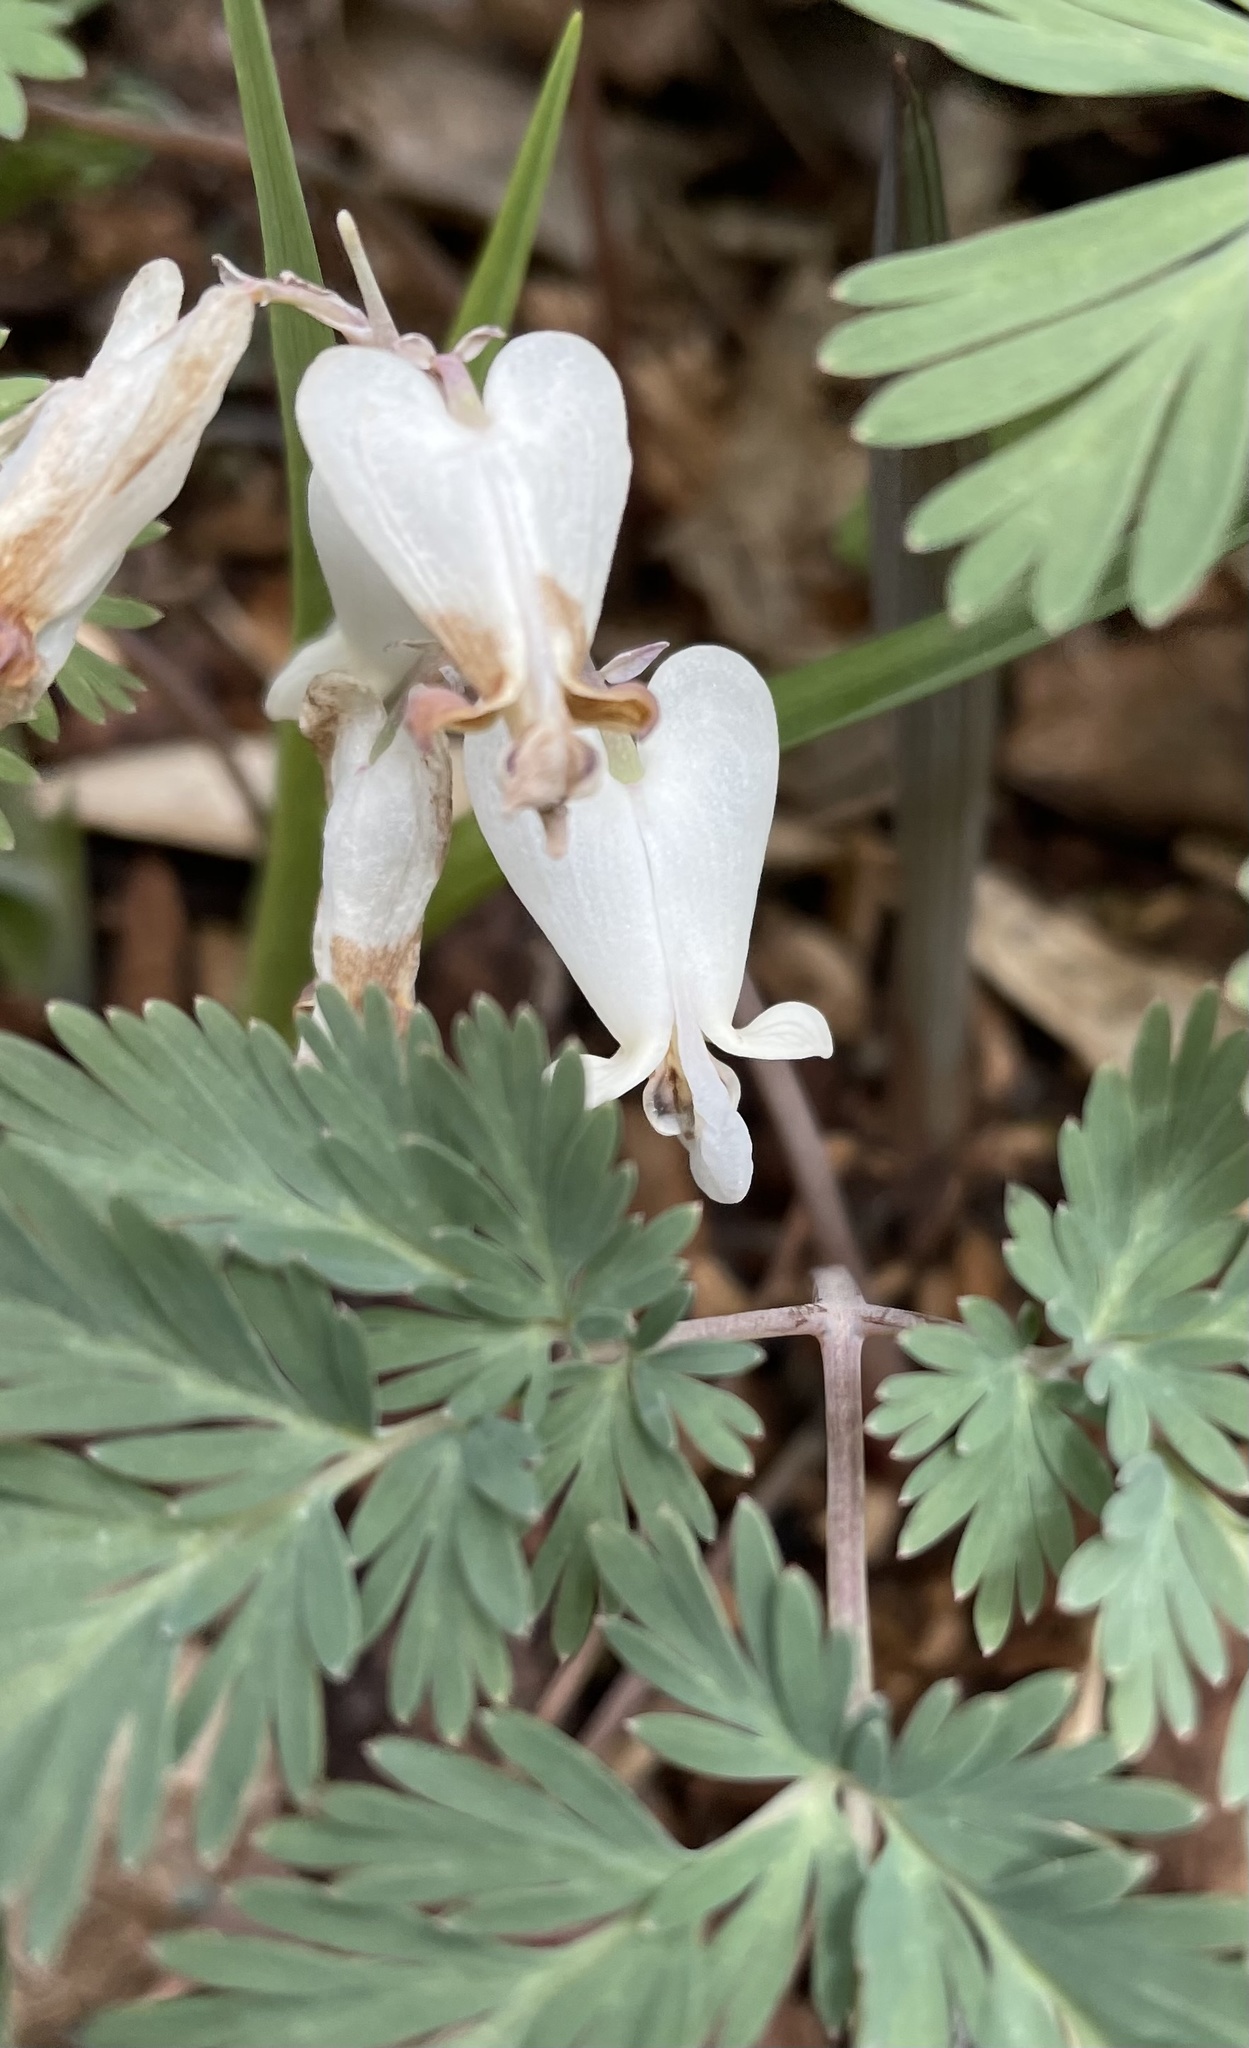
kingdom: Plantae
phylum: Tracheophyta
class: Magnoliopsida
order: Ranunculales
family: Papaveraceae
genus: Dicentra
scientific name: Dicentra canadensis
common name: Squirrel-corn
